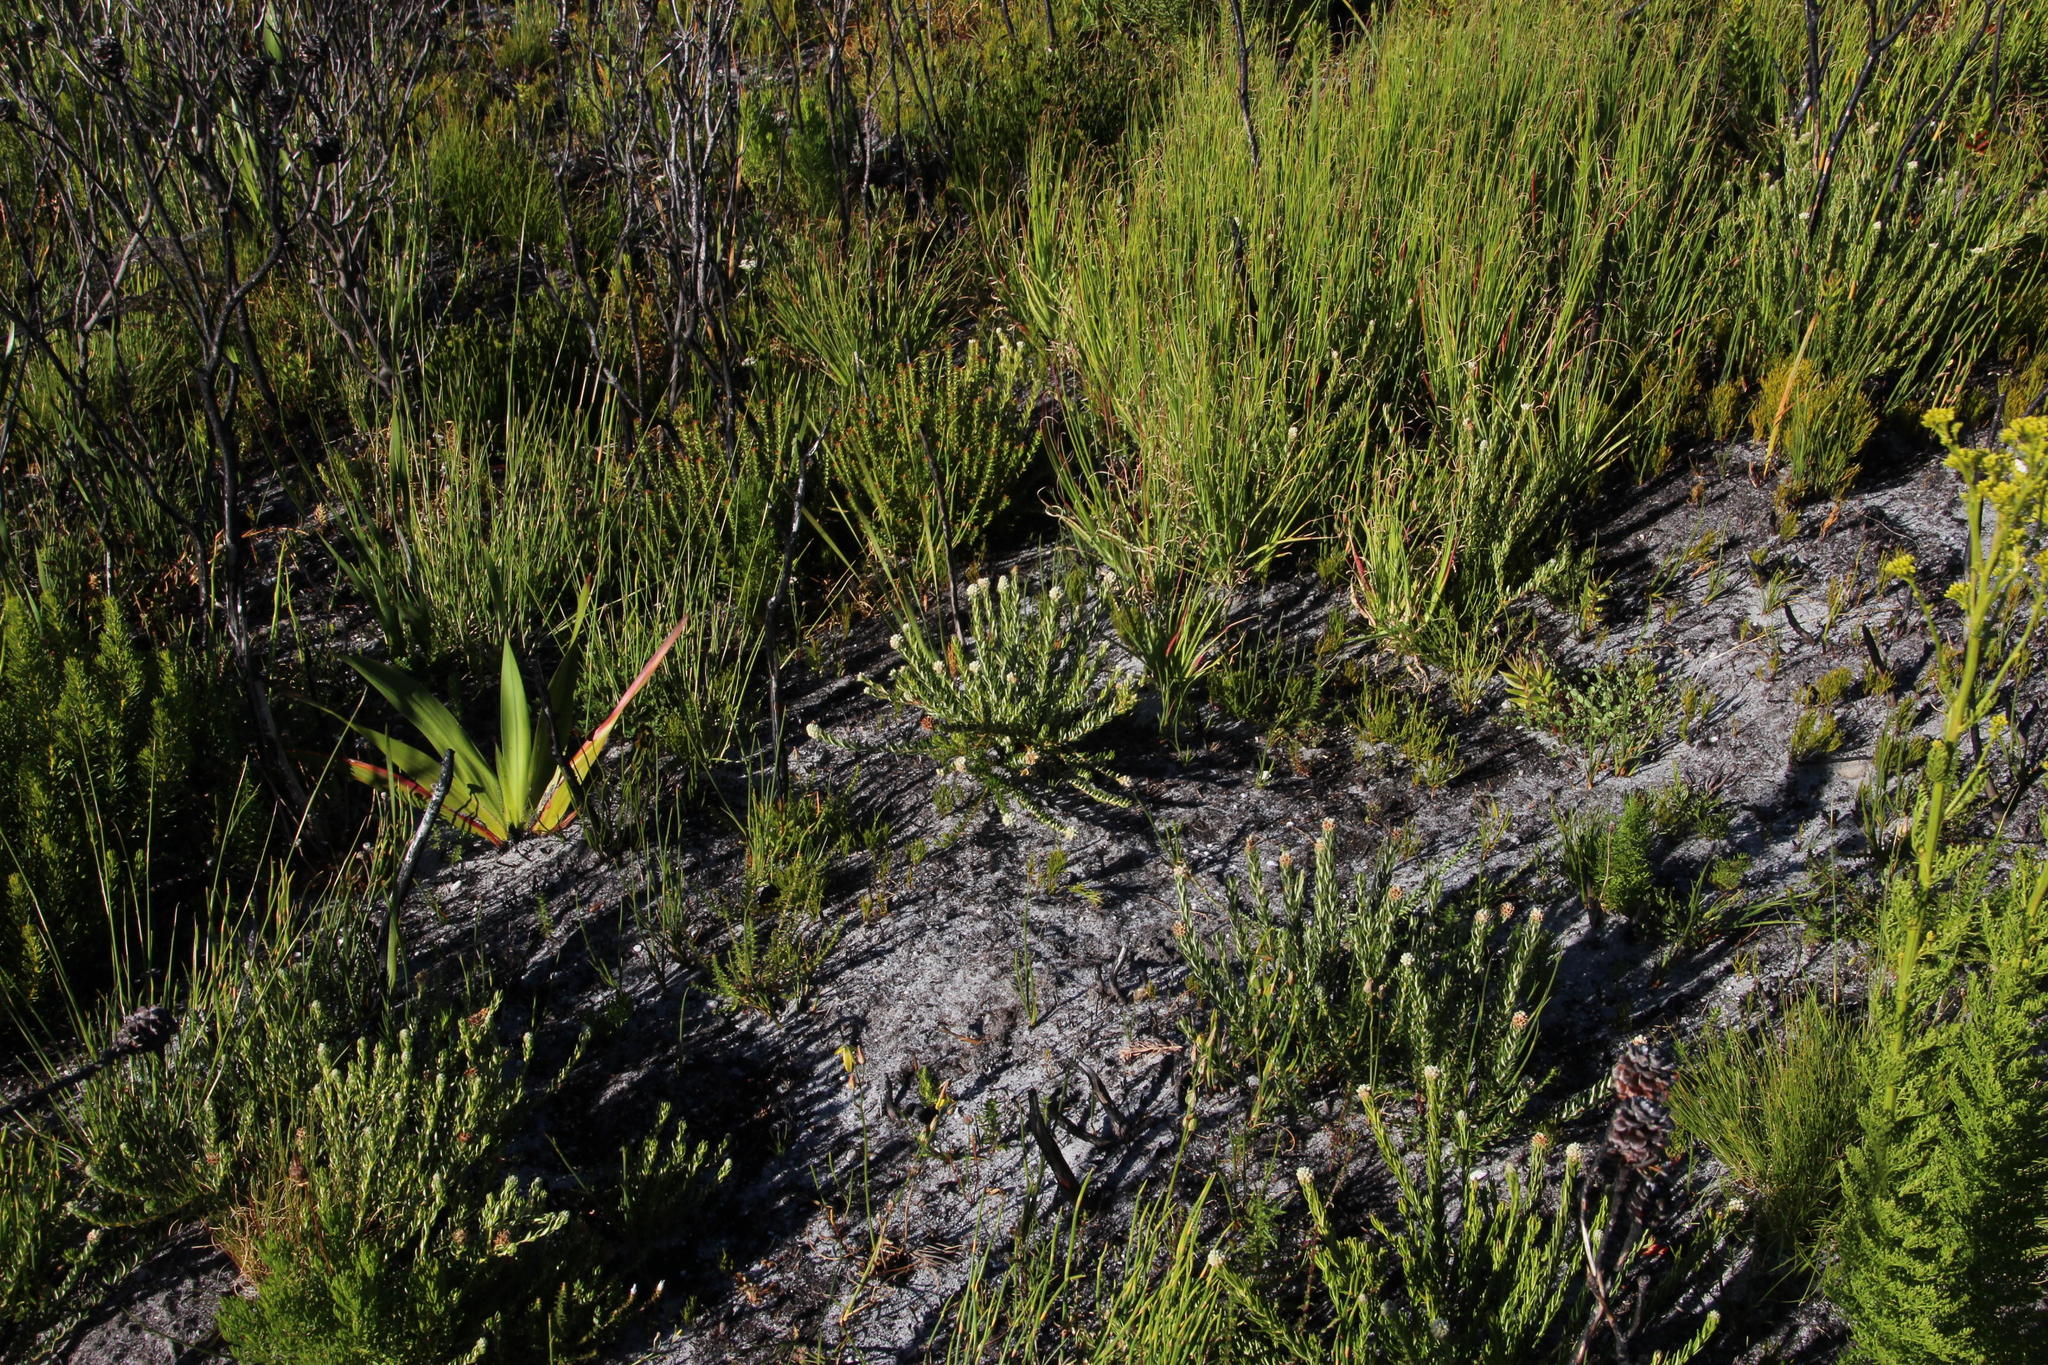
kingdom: Plantae
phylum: Tracheophyta
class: Magnoliopsida
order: Rosales
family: Rhamnaceae
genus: Phylica
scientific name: Phylica imberbis
